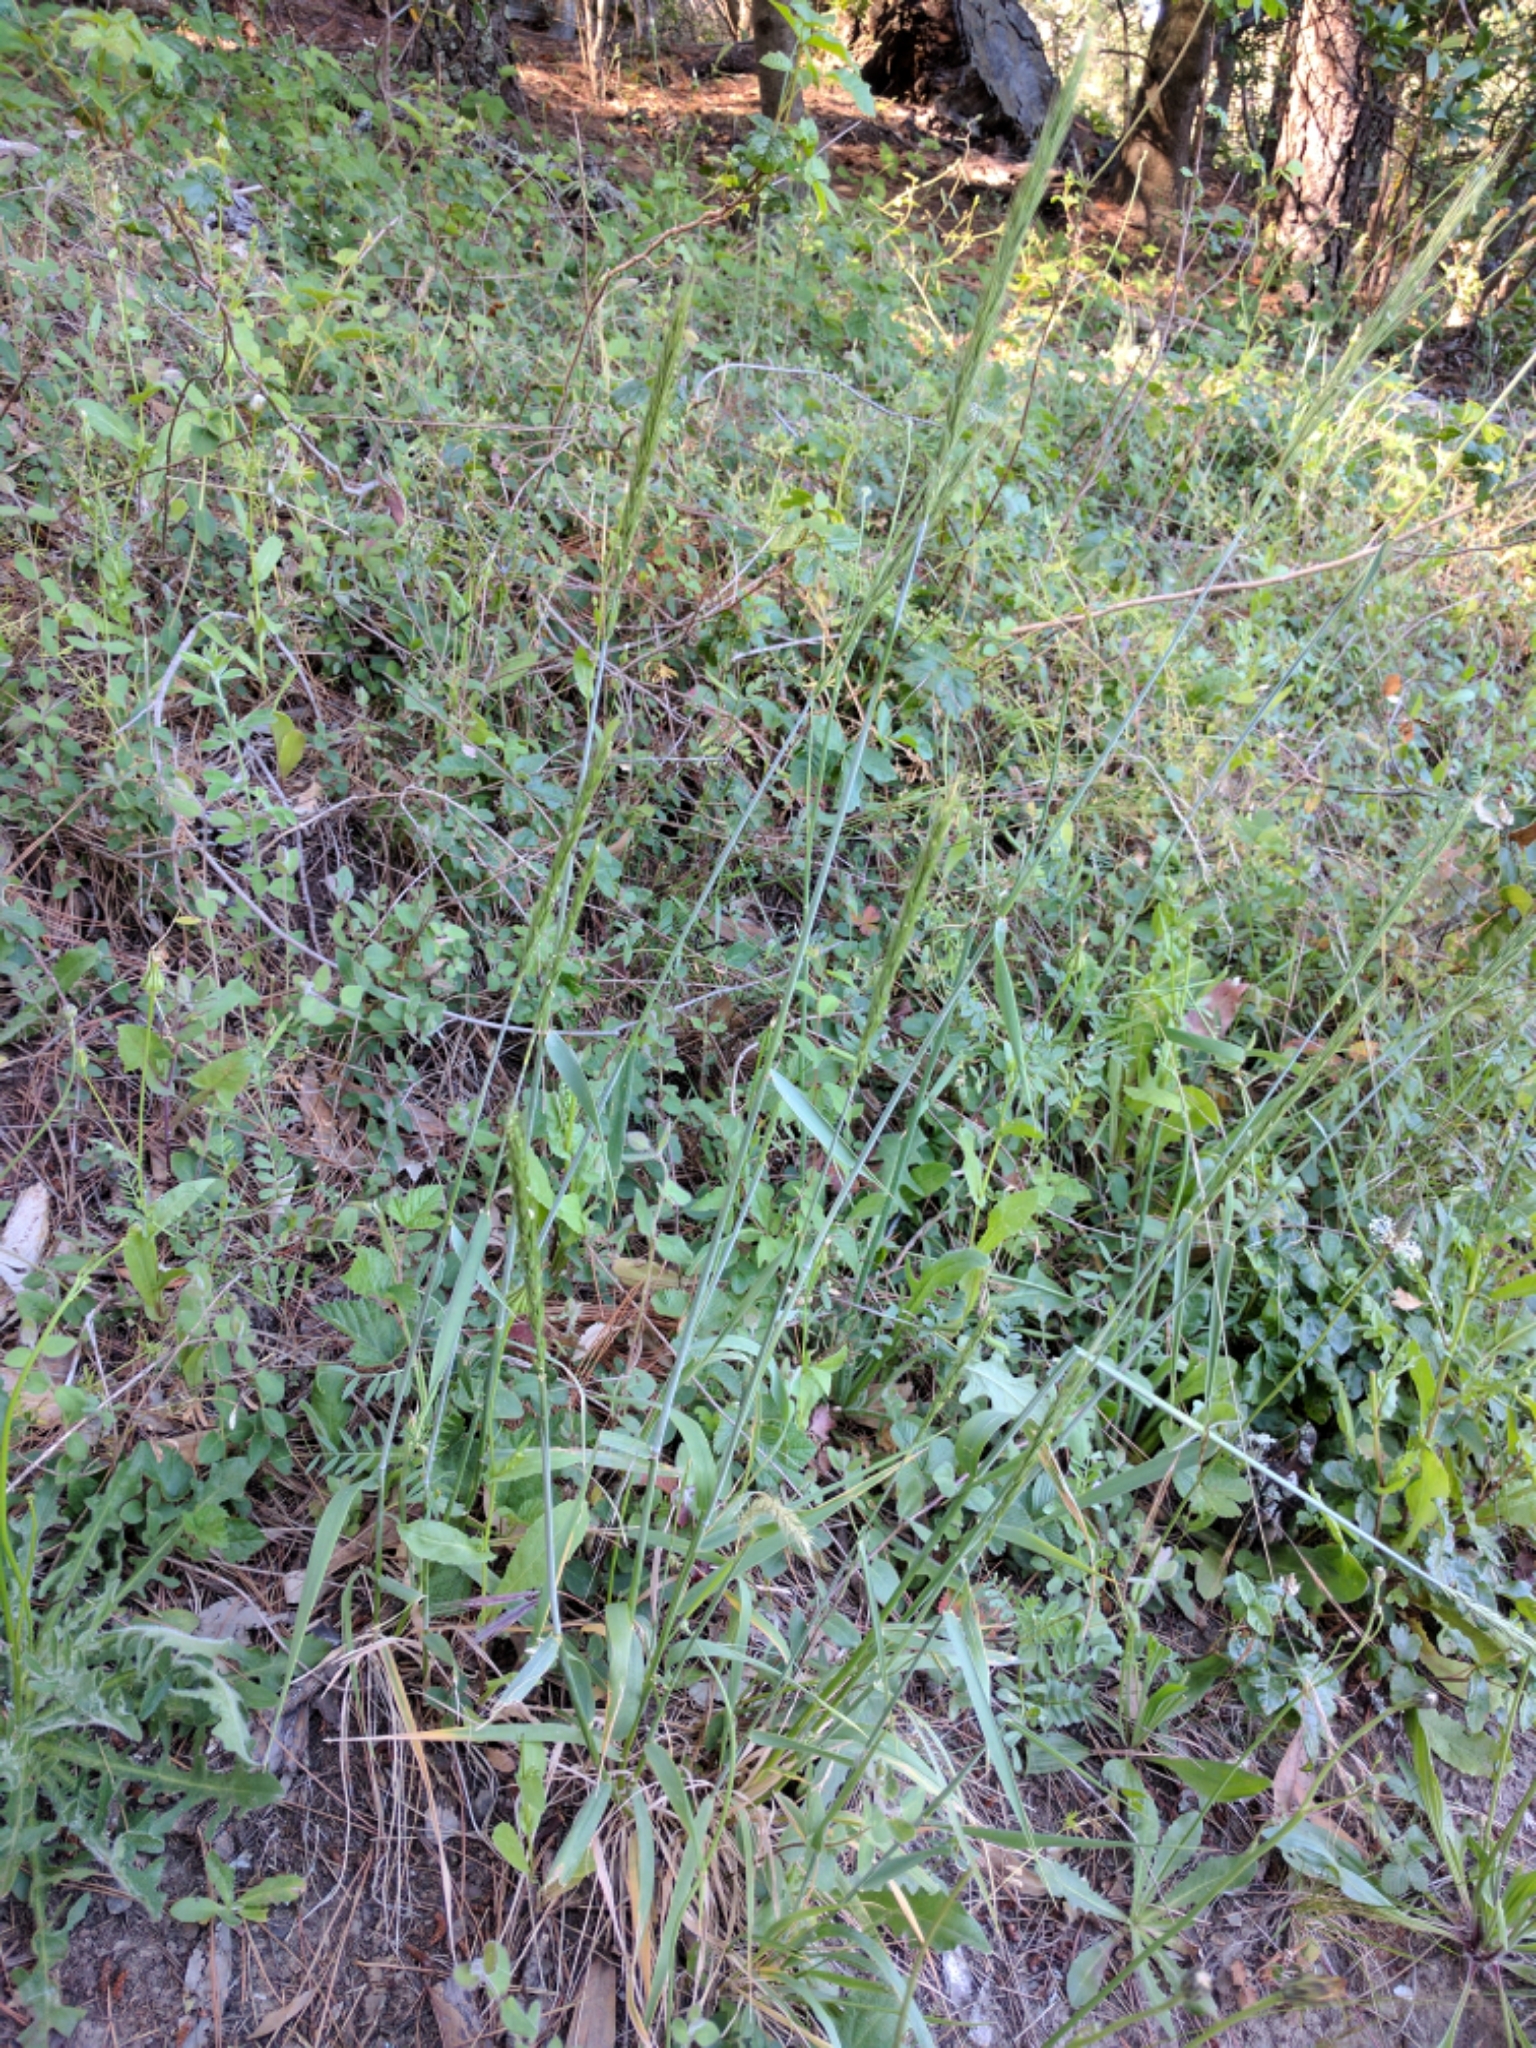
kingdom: Plantae
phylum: Tracheophyta
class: Liliopsida
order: Poales
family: Poaceae
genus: Elymus
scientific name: Elymus glaucus
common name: Blue wild rye
